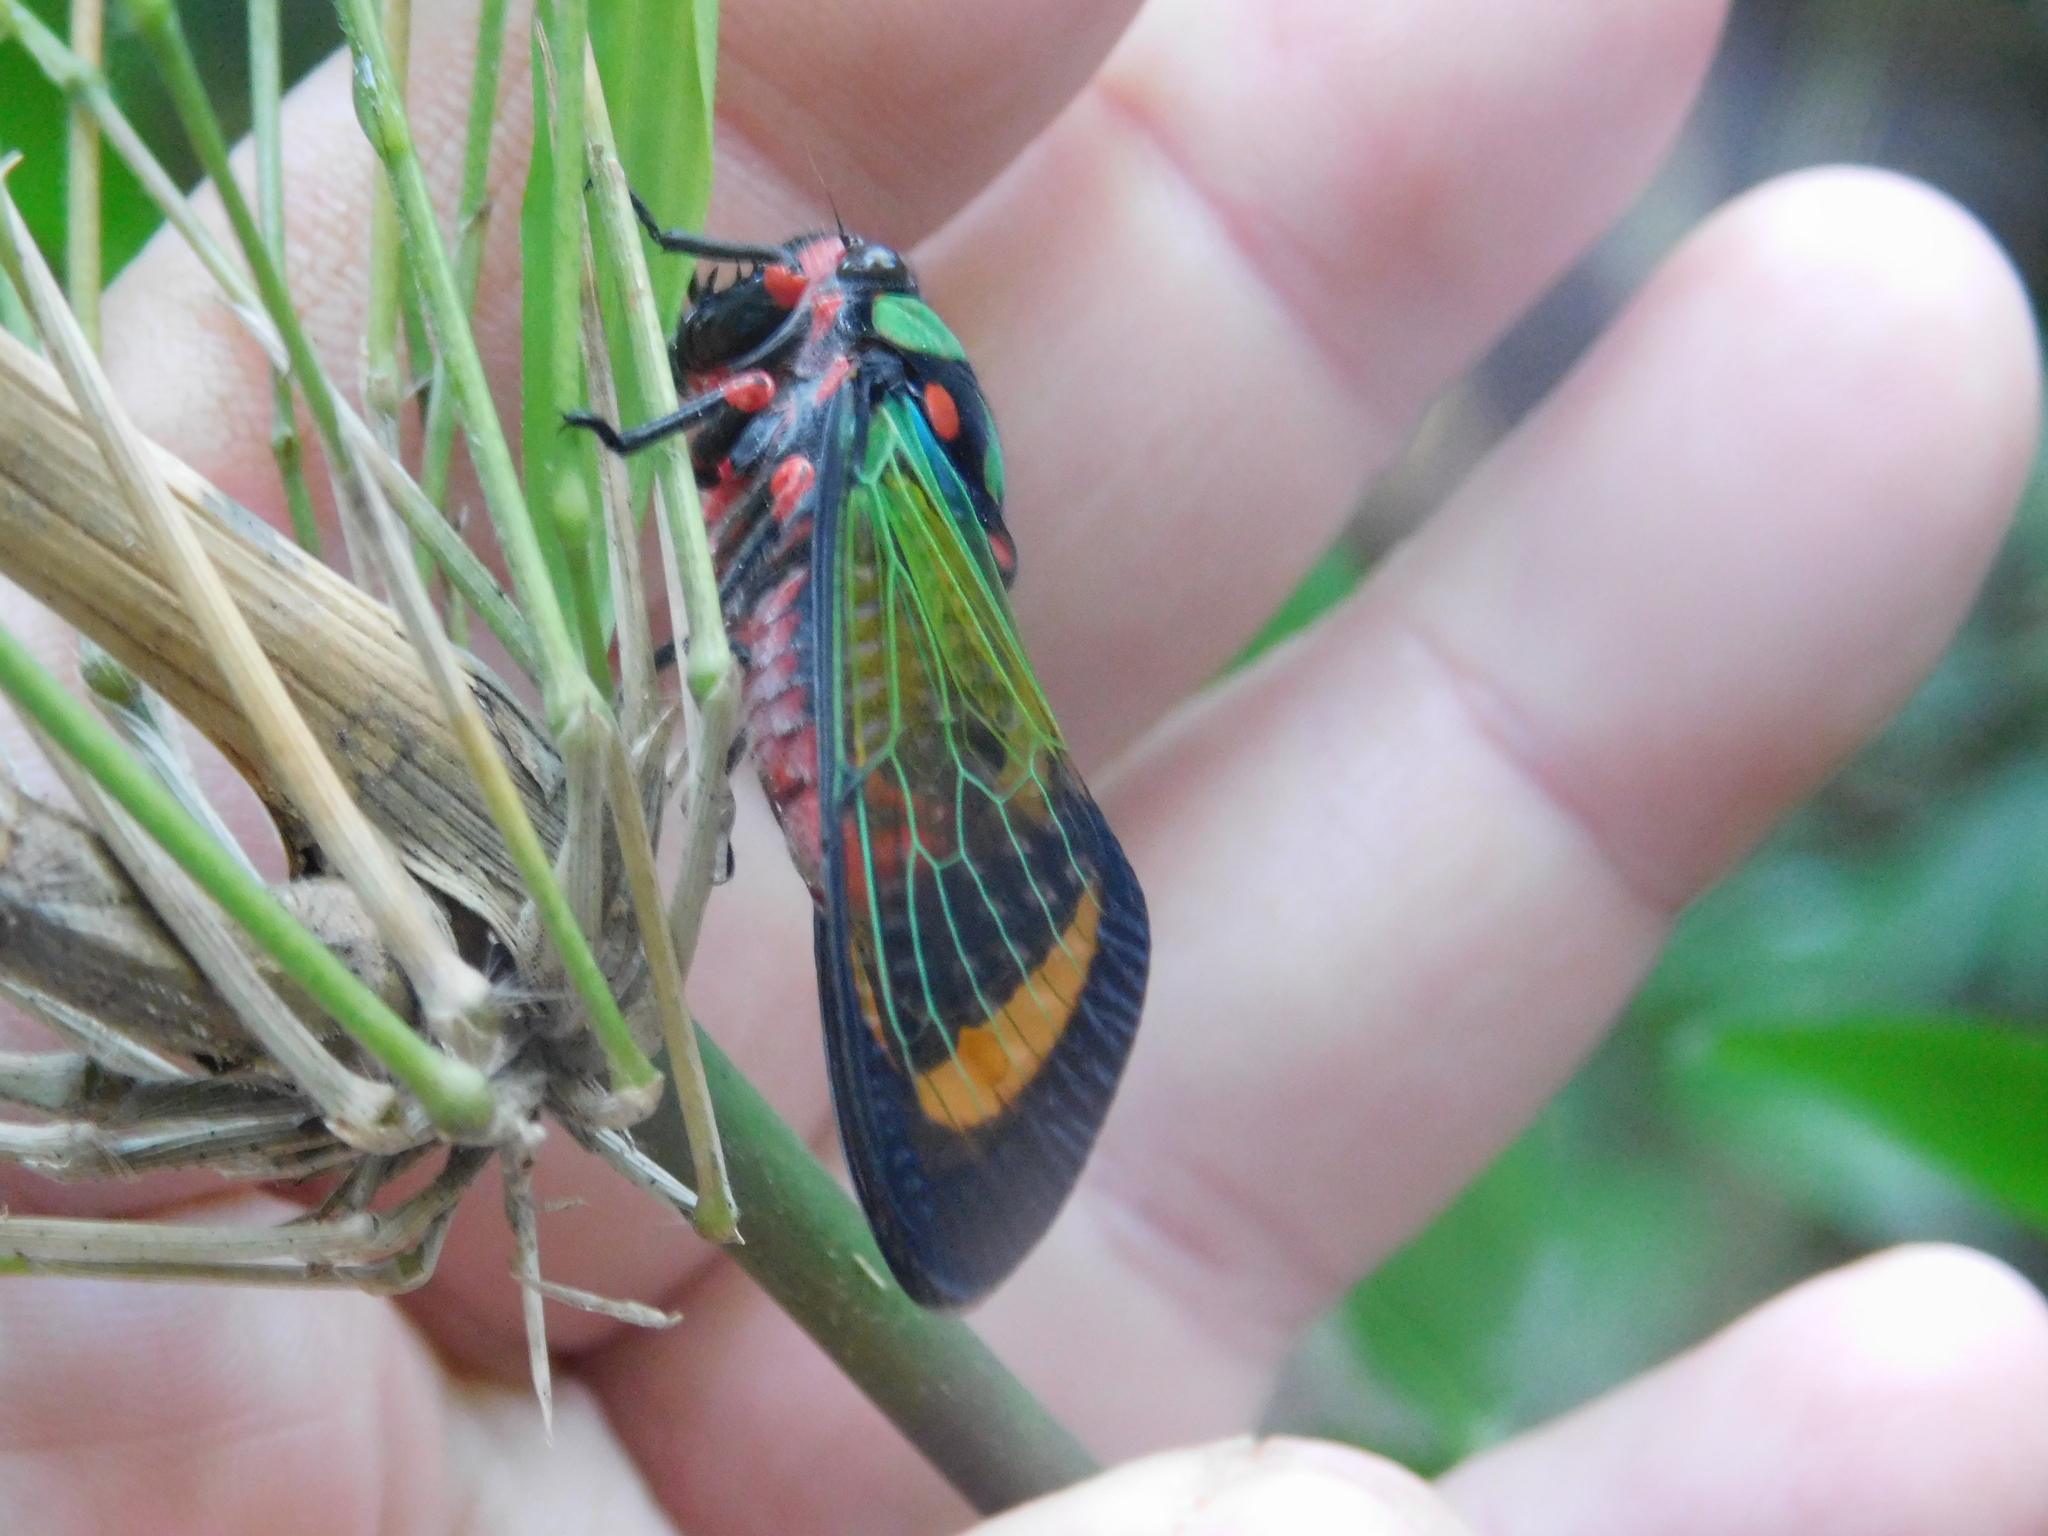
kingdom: Animalia
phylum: Arthropoda
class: Insecta
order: Hemiptera
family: Cicadidae
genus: Carineta
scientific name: Carineta diardi
